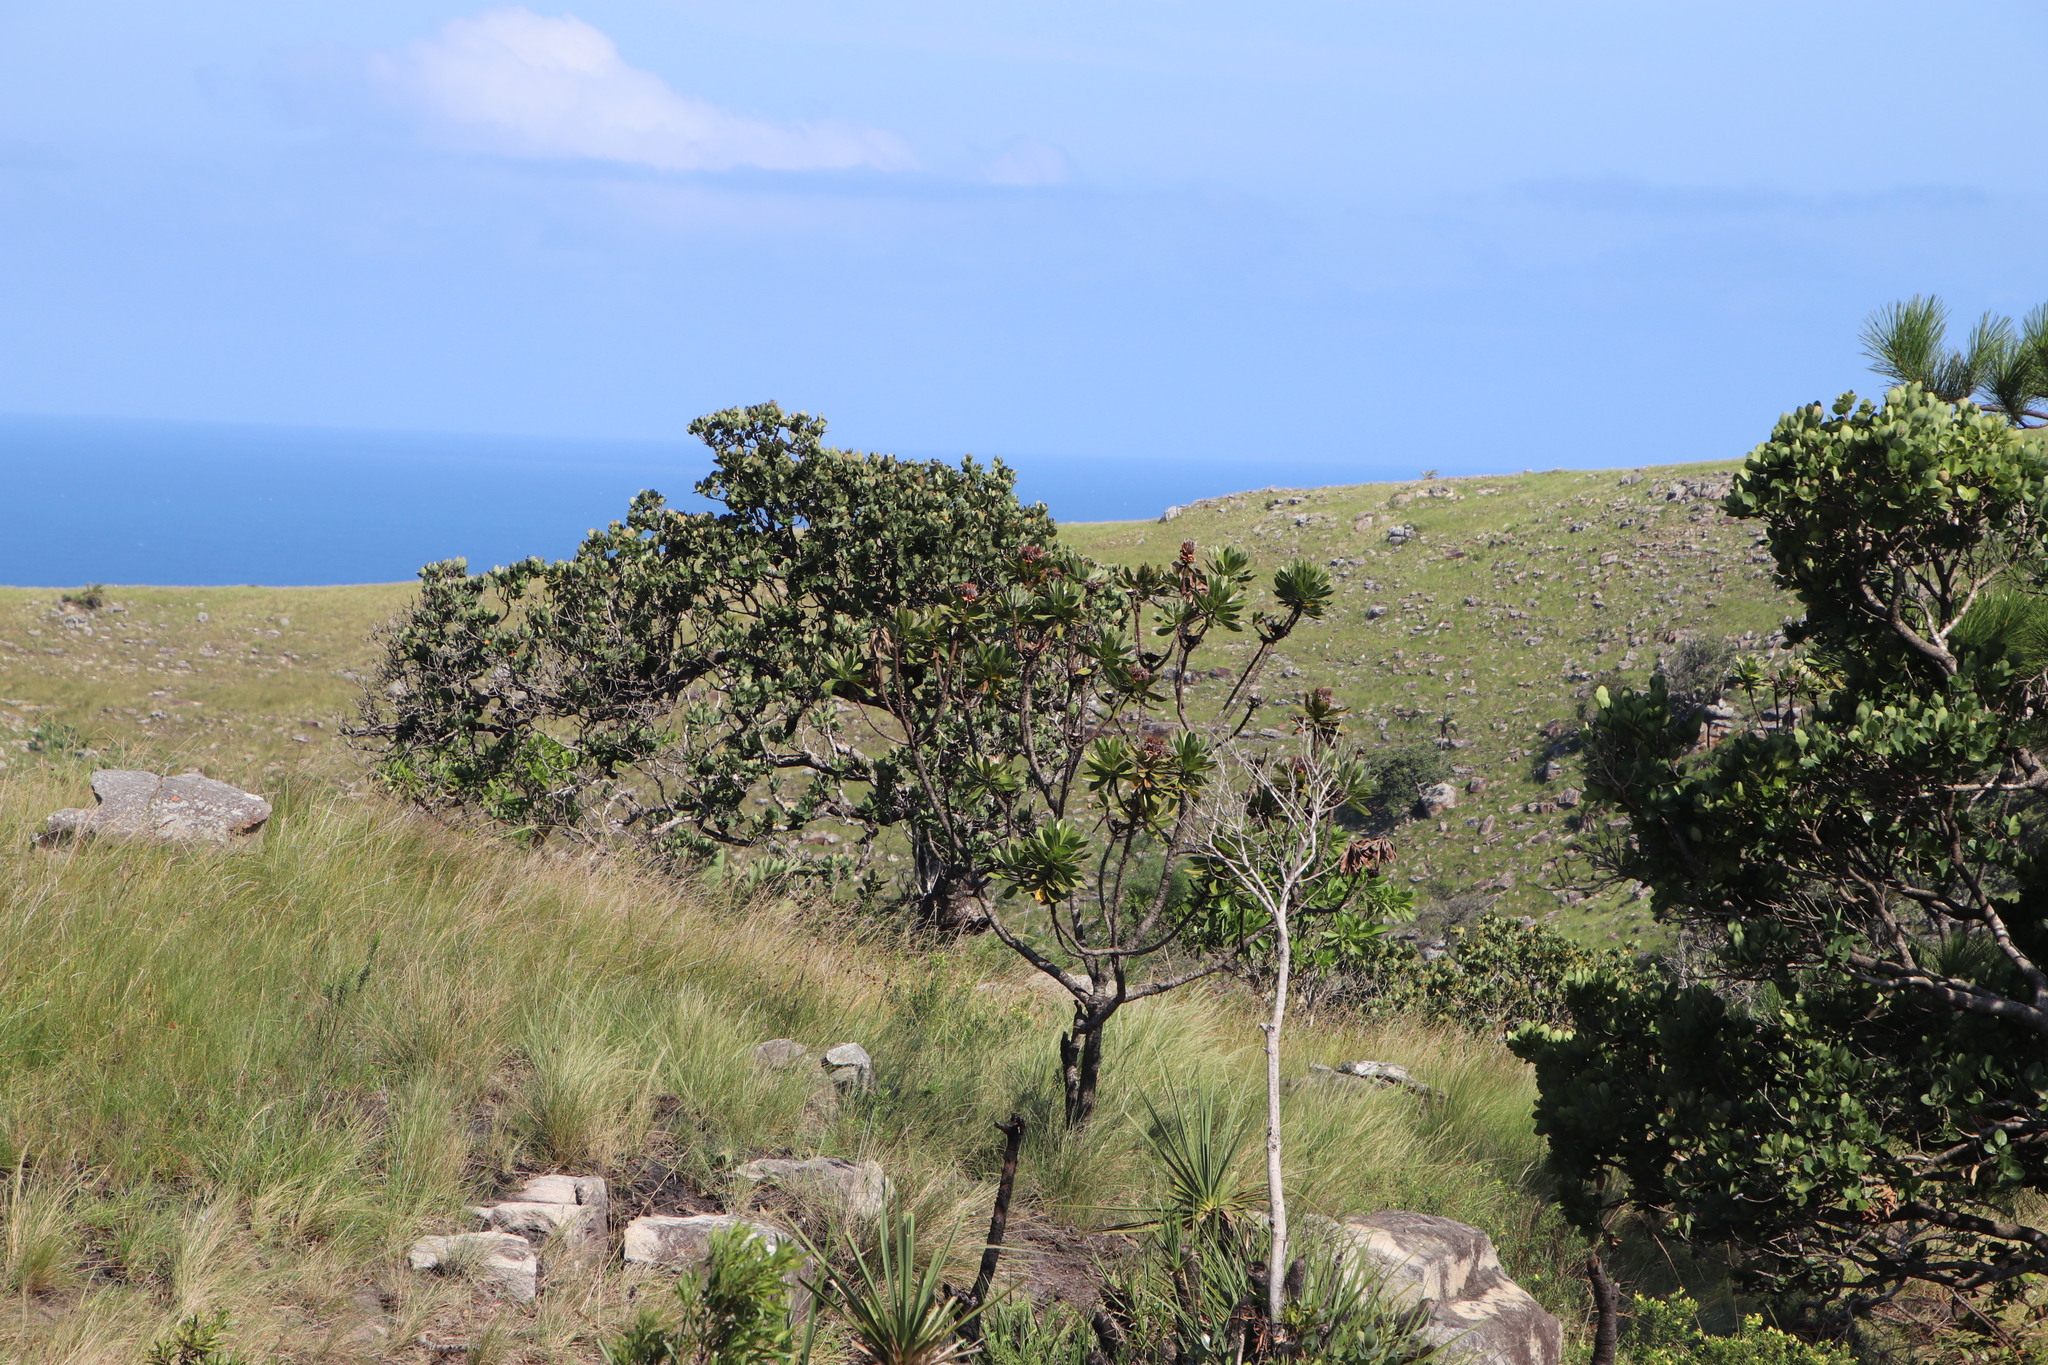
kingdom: Plantae
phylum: Tracheophyta
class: Magnoliopsida
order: Proteales
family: Proteaceae
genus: Protea
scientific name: Protea roupelliae
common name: Silver sugarbush
